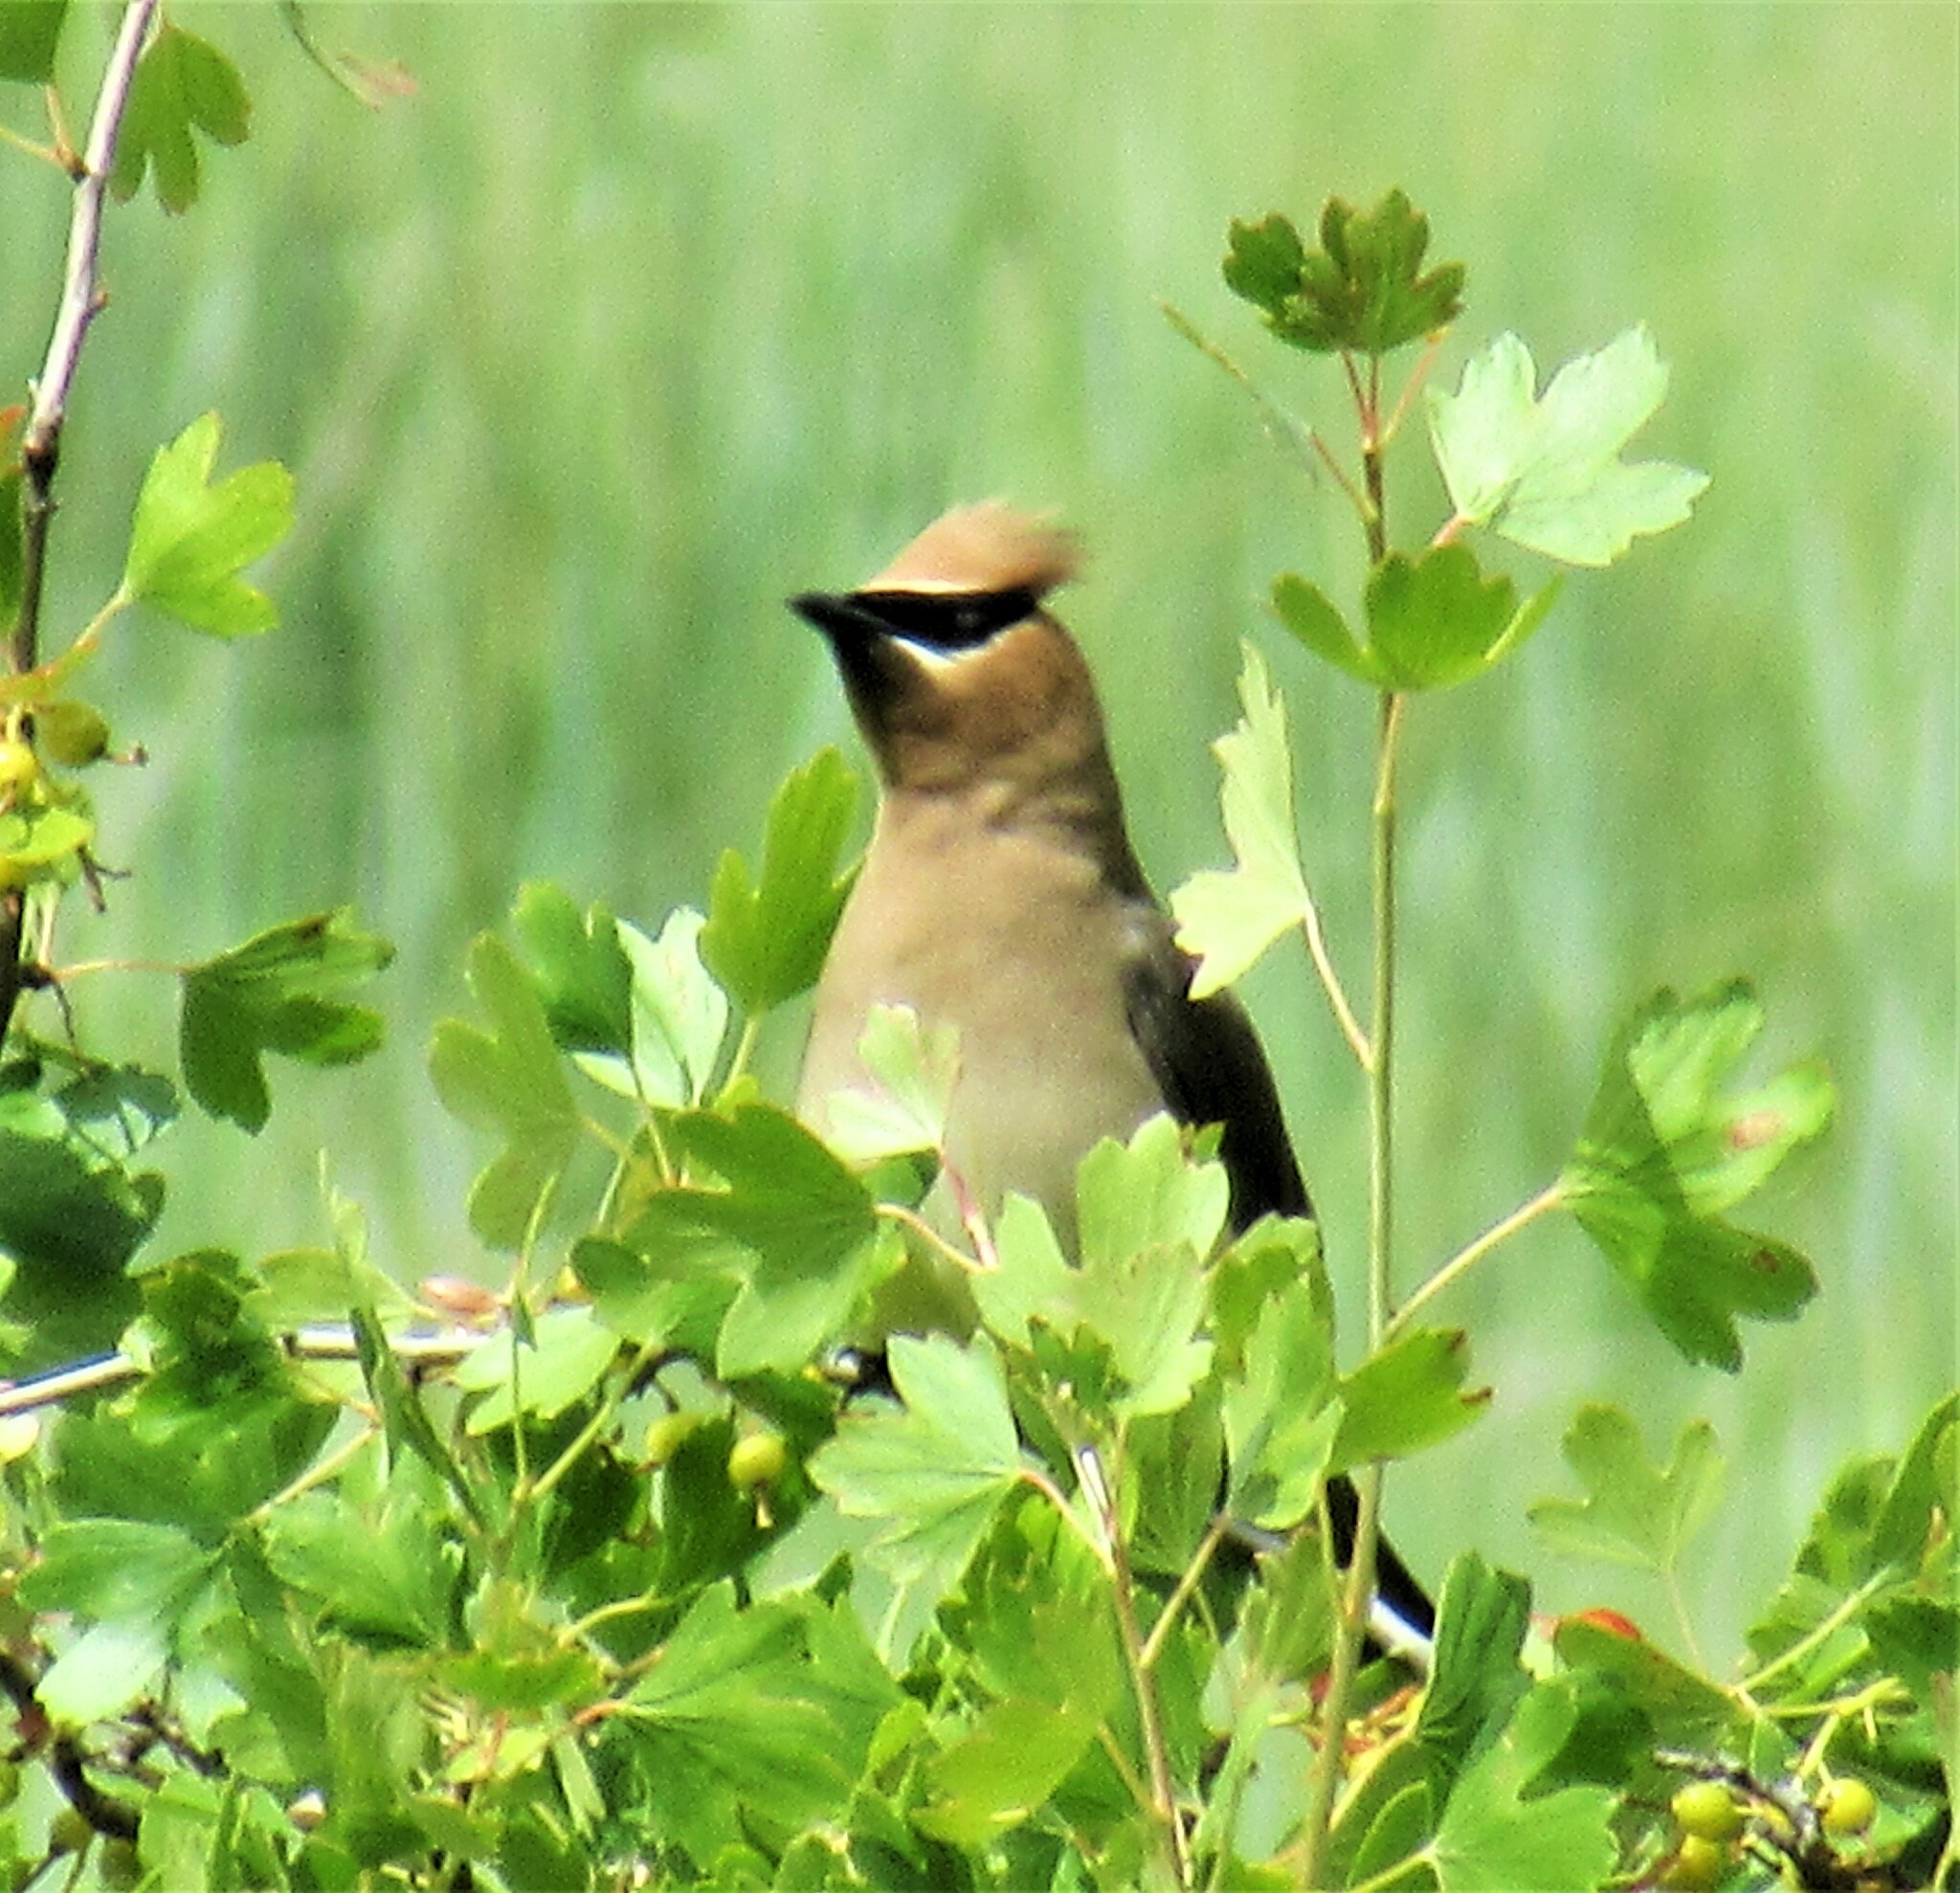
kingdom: Animalia
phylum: Chordata
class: Aves
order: Passeriformes
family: Bombycillidae
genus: Bombycilla
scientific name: Bombycilla cedrorum
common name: Cedar waxwing
